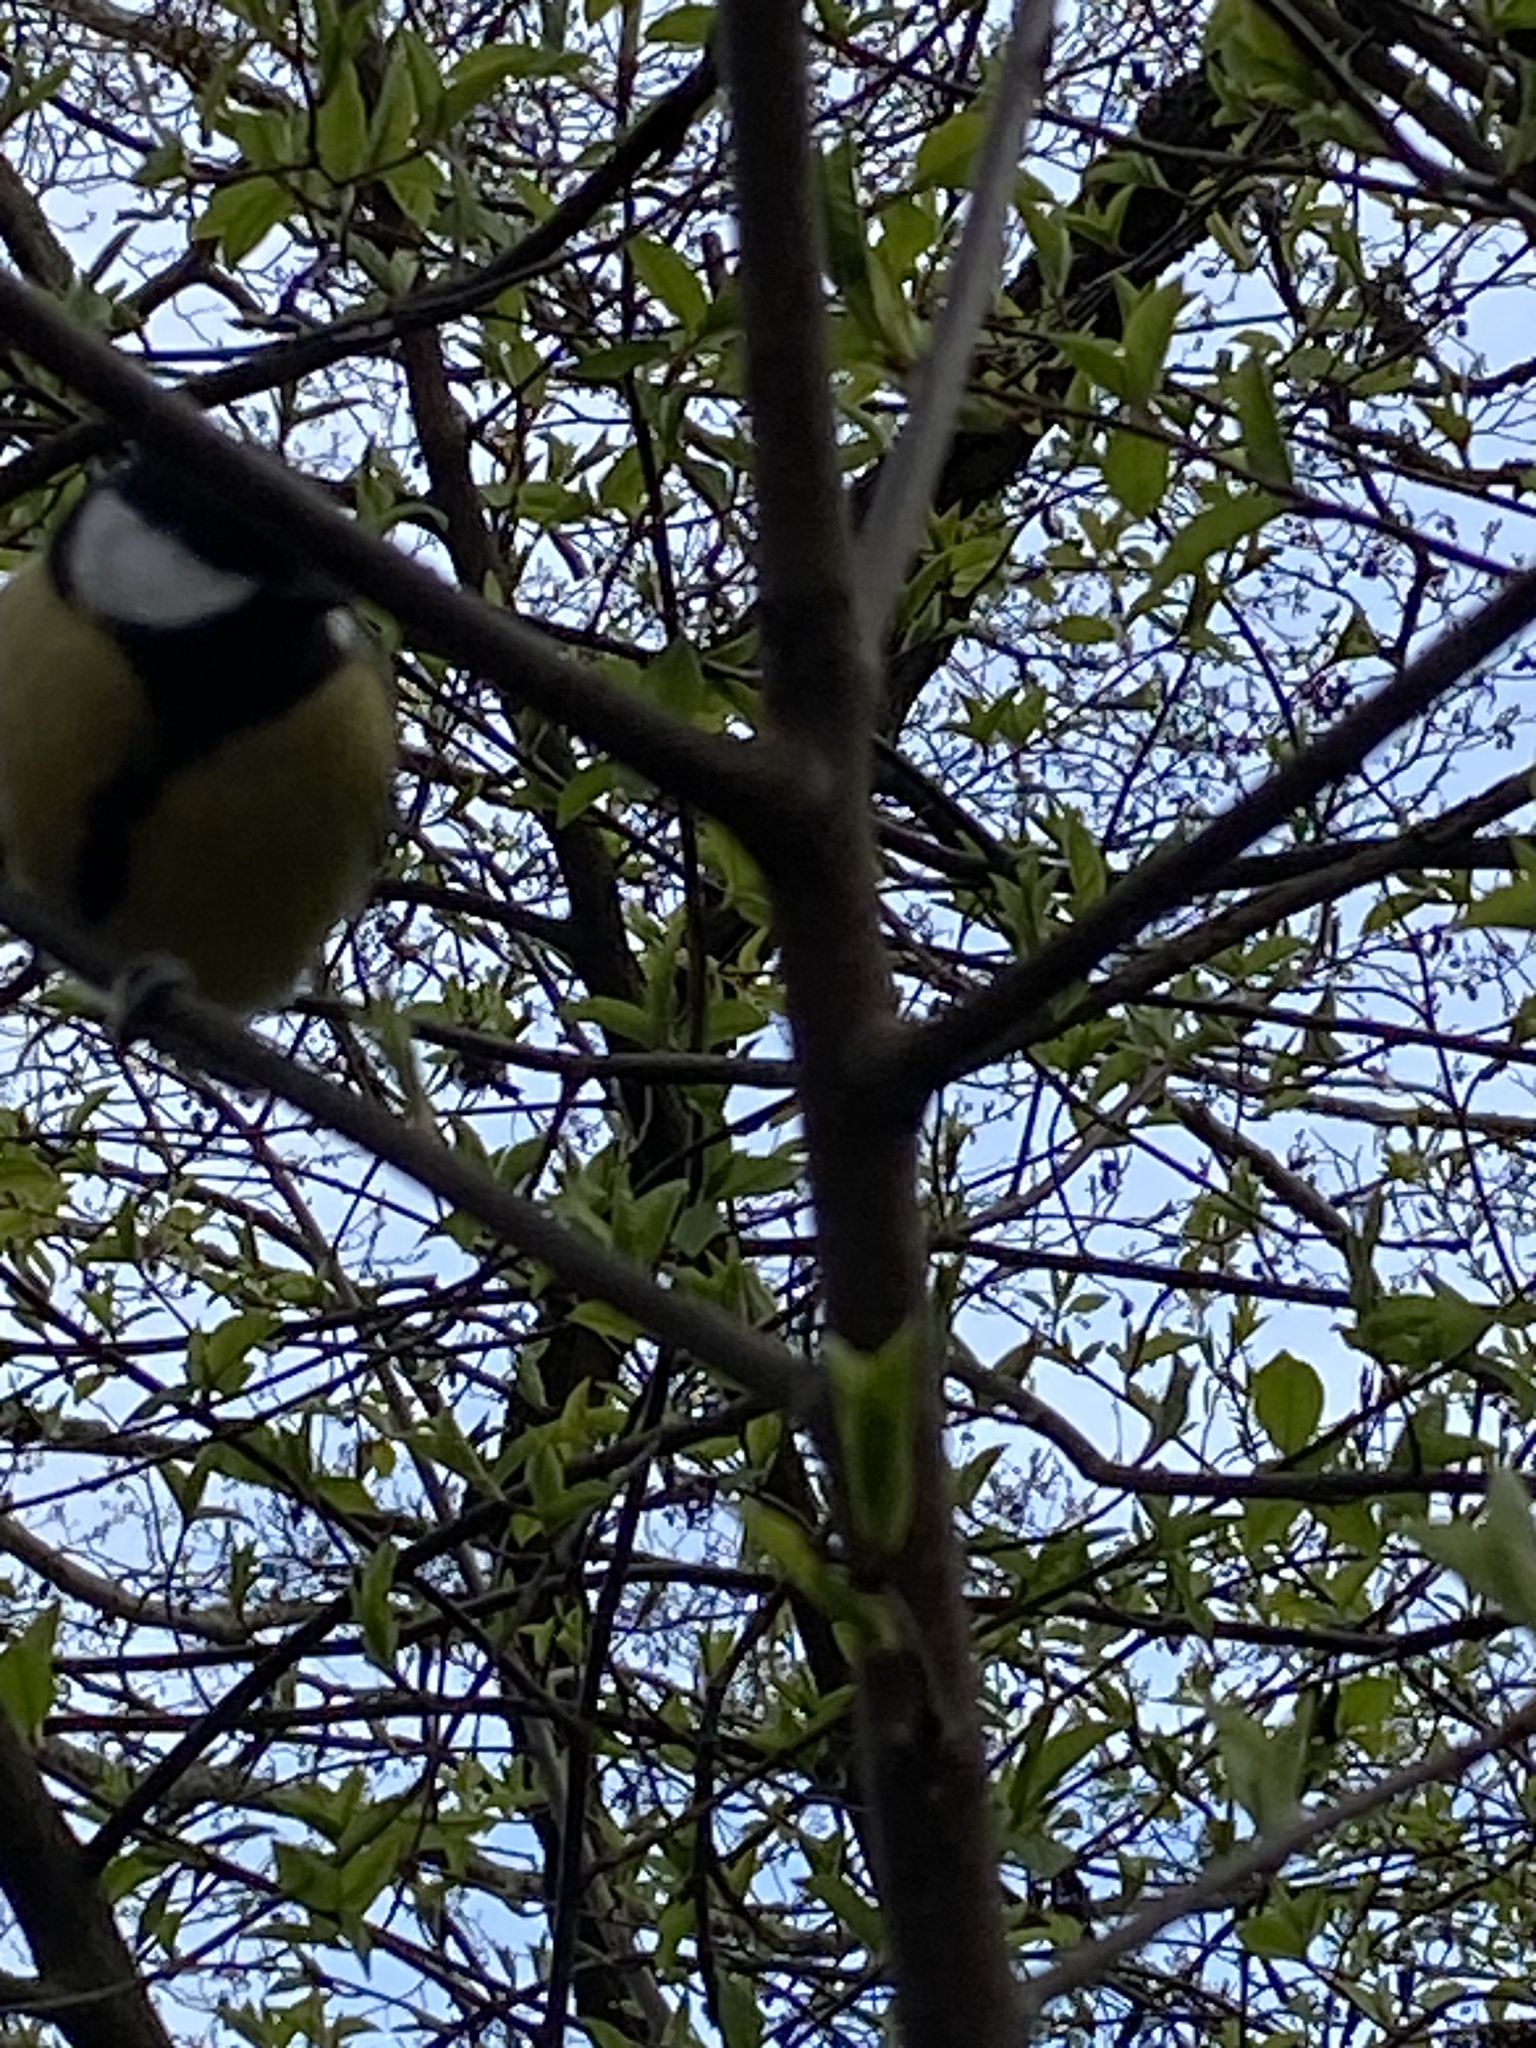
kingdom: Animalia
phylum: Chordata
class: Aves
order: Passeriformes
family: Paridae
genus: Parus
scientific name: Parus major
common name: Great tit
